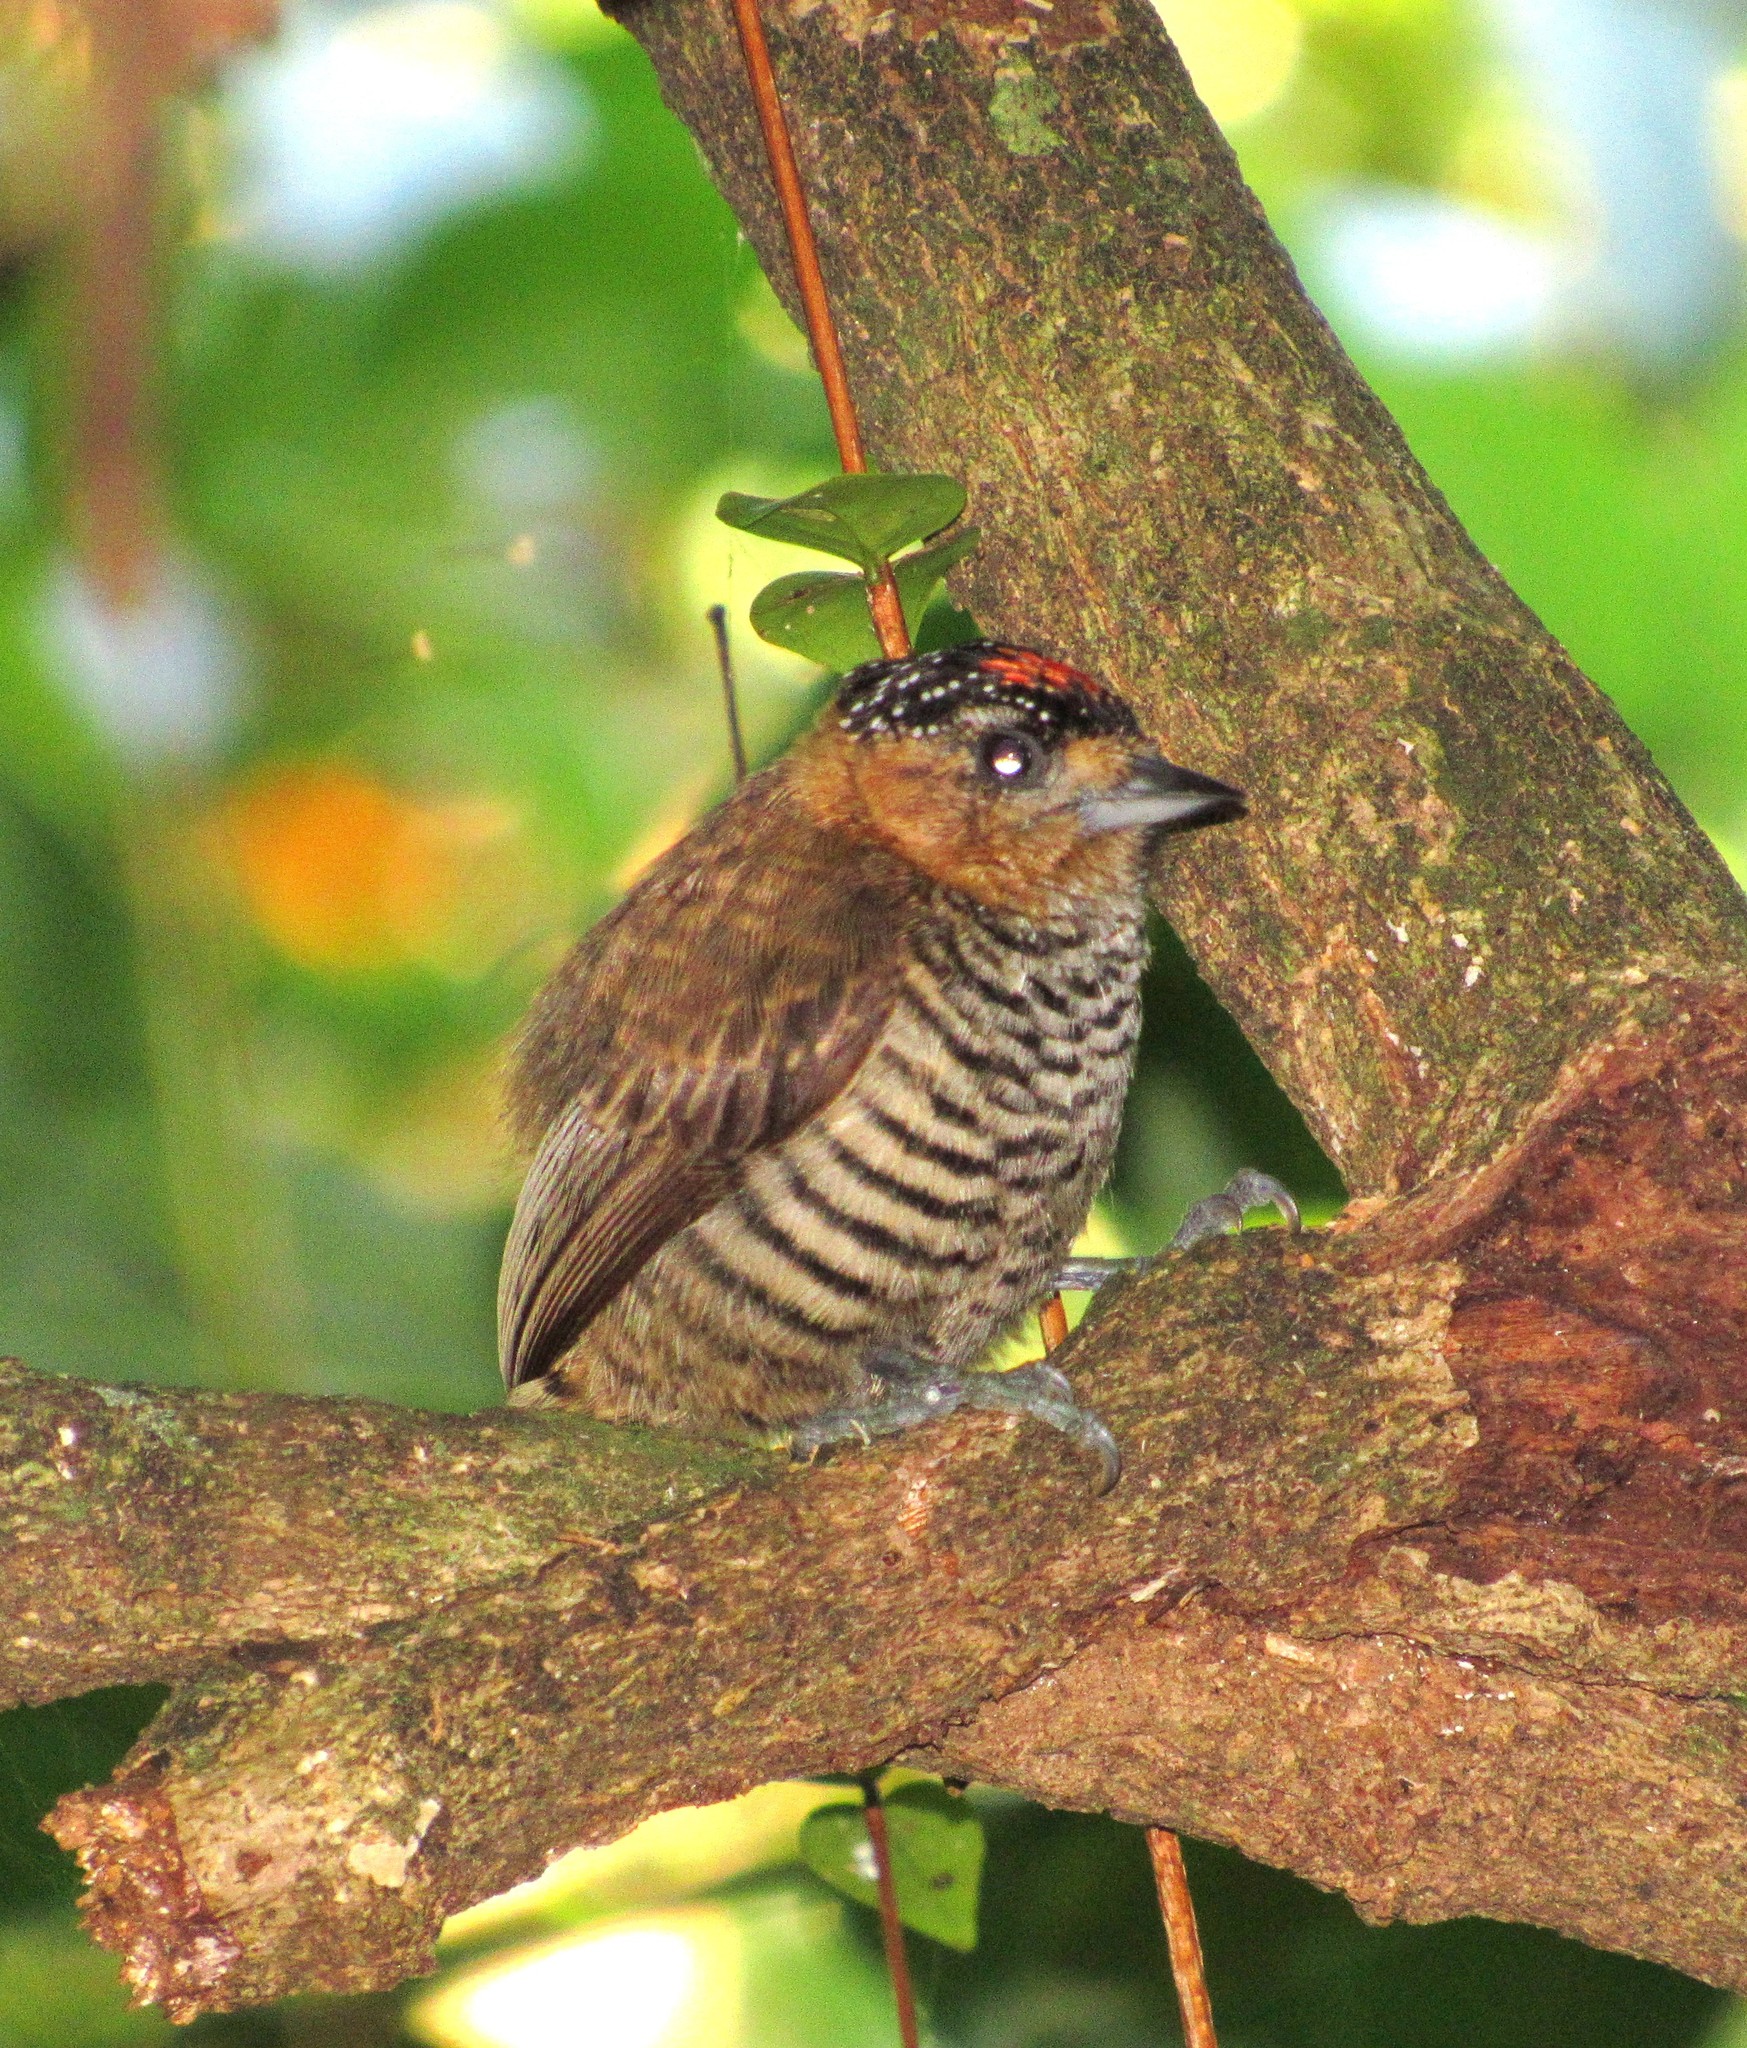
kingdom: Animalia
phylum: Chordata
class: Aves
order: Piciformes
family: Picidae
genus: Picumnus
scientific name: Picumnus temminckii
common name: Ochre-collared piculet
